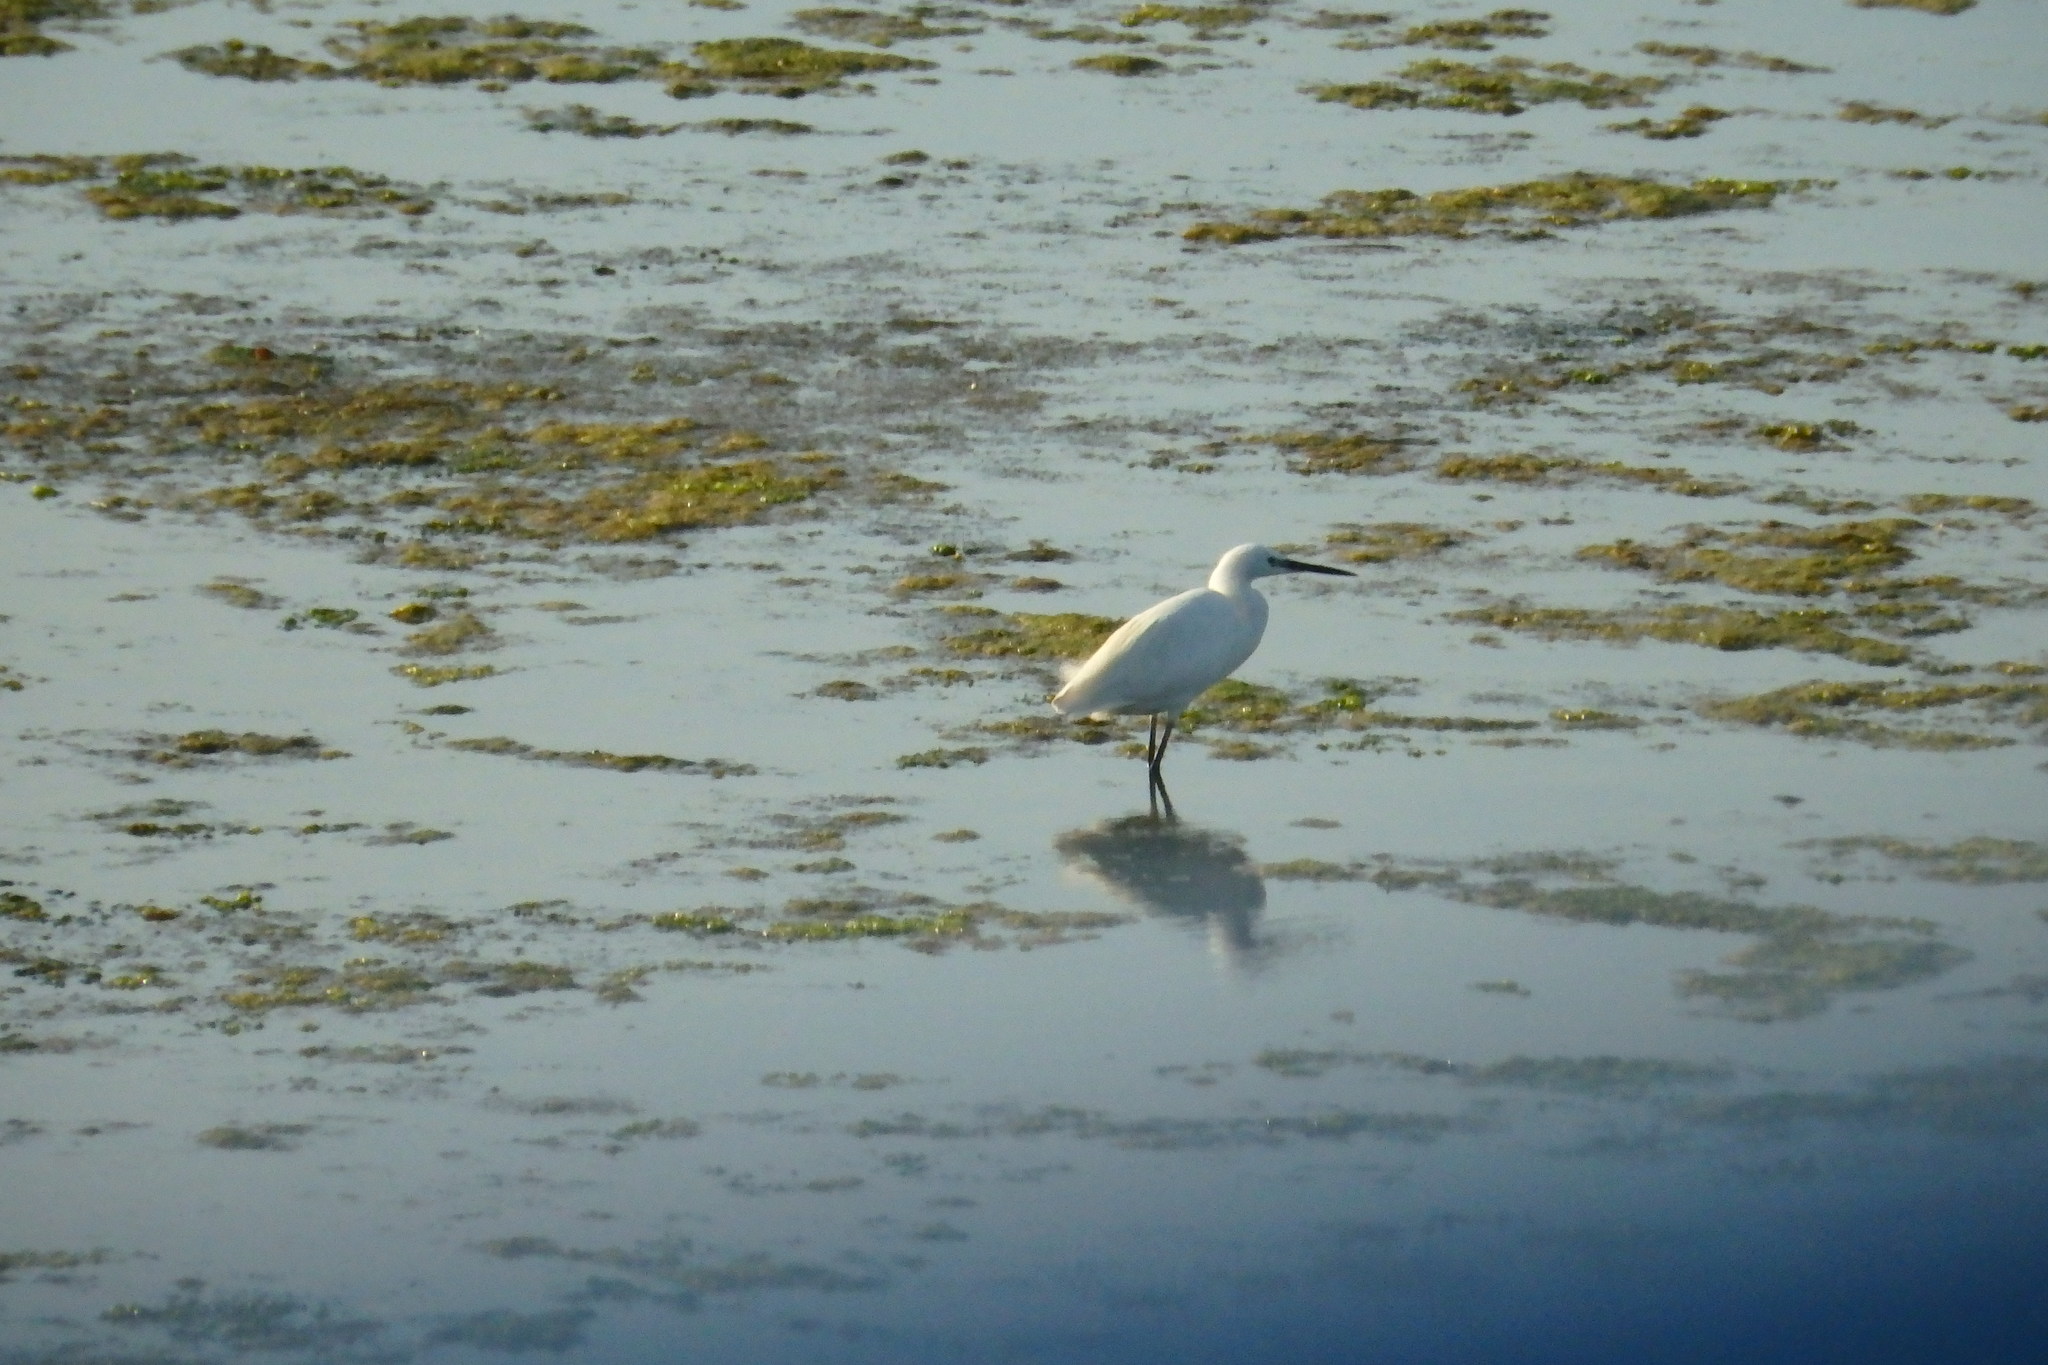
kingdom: Animalia
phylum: Chordata
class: Aves
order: Pelecaniformes
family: Ardeidae
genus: Egretta
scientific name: Egretta garzetta
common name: Little egret
